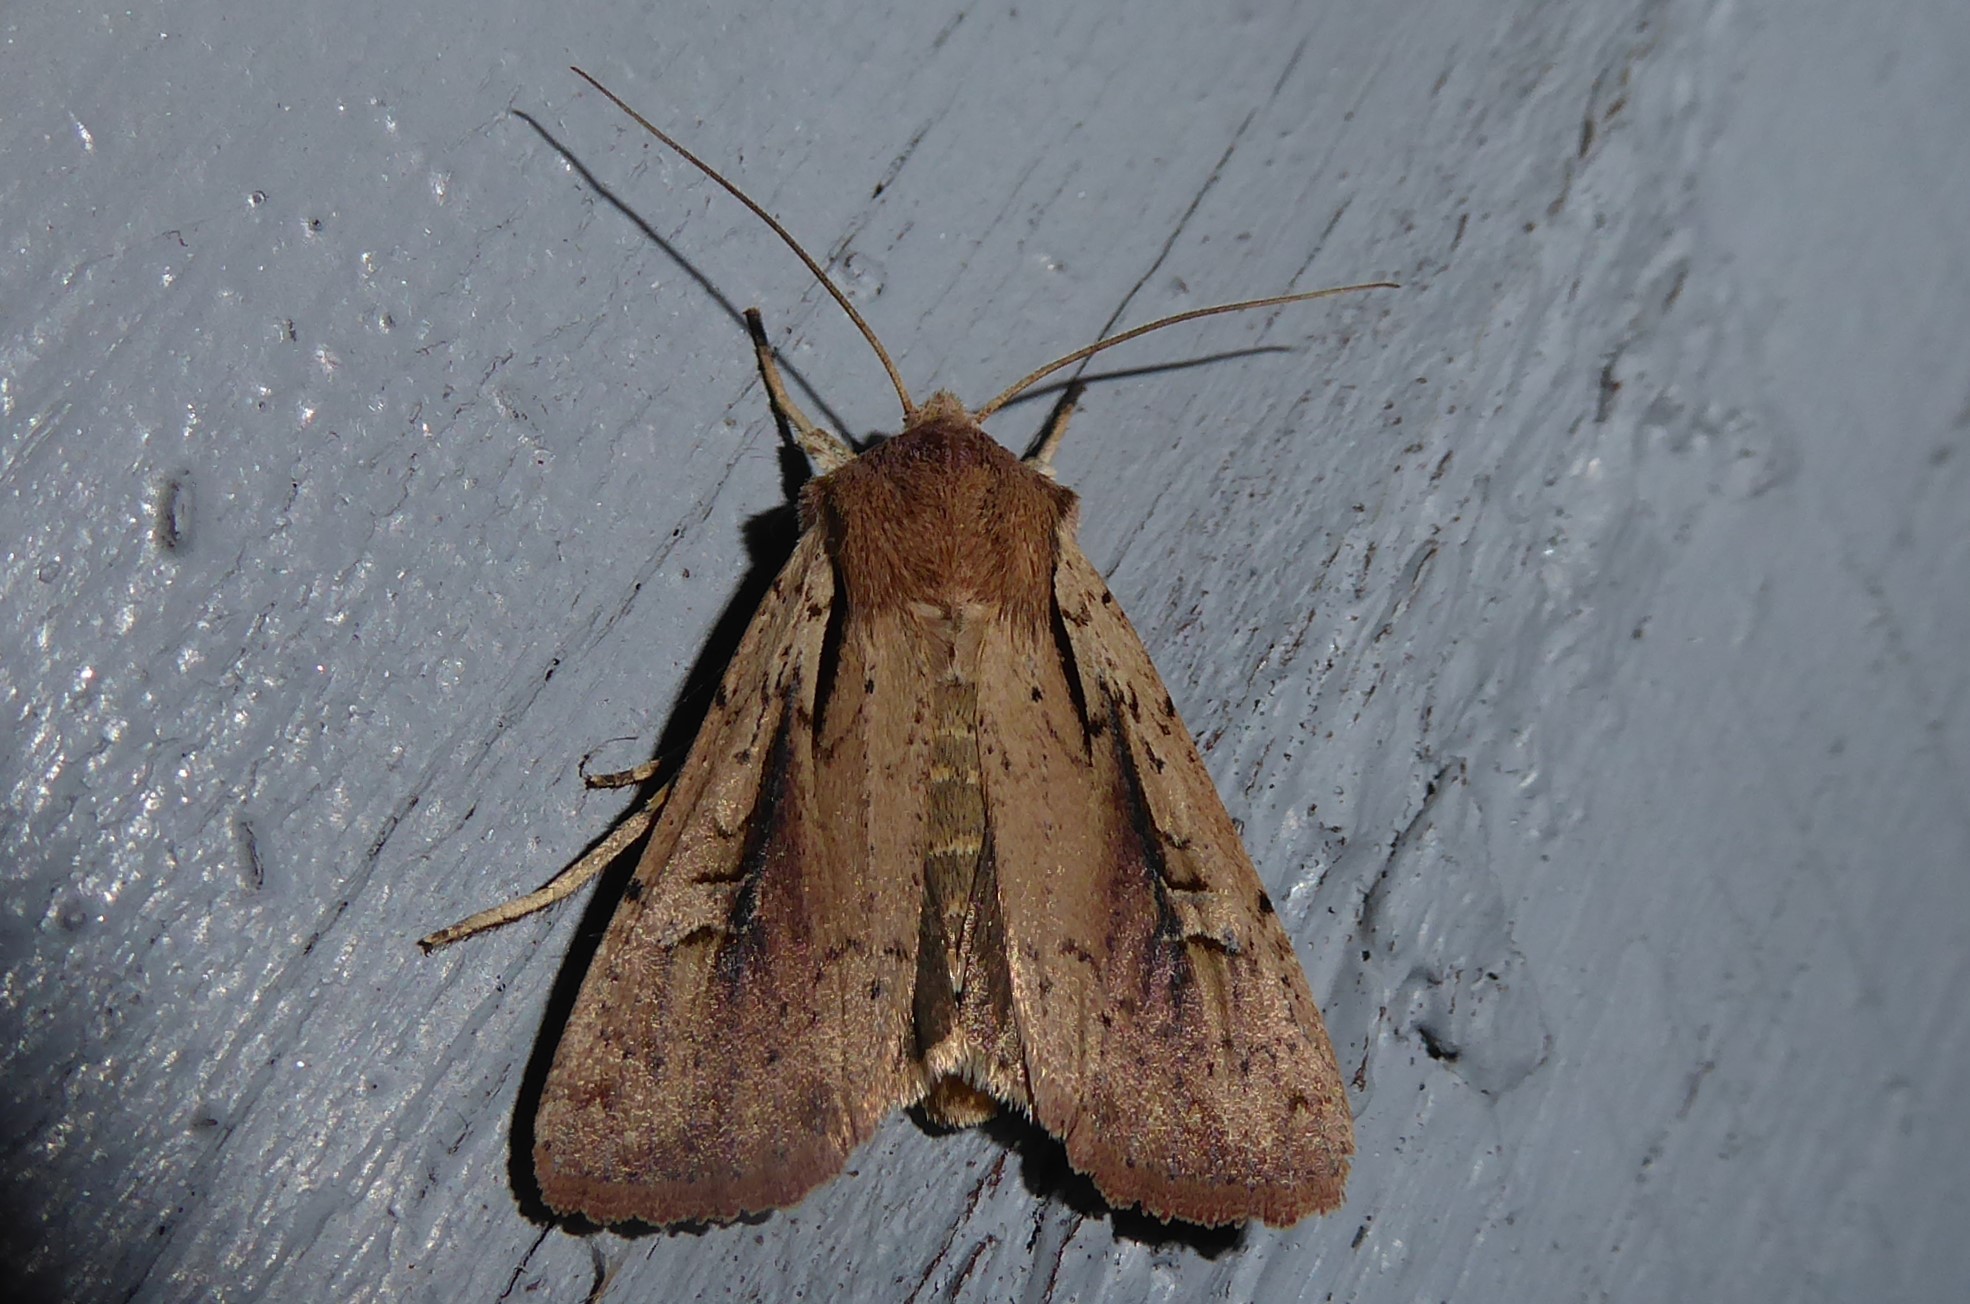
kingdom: Animalia
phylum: Arthropoda
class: Insecta
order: Lepidoptera
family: Noctuidae
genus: Ichneutica
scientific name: Ichneutica atristriga
